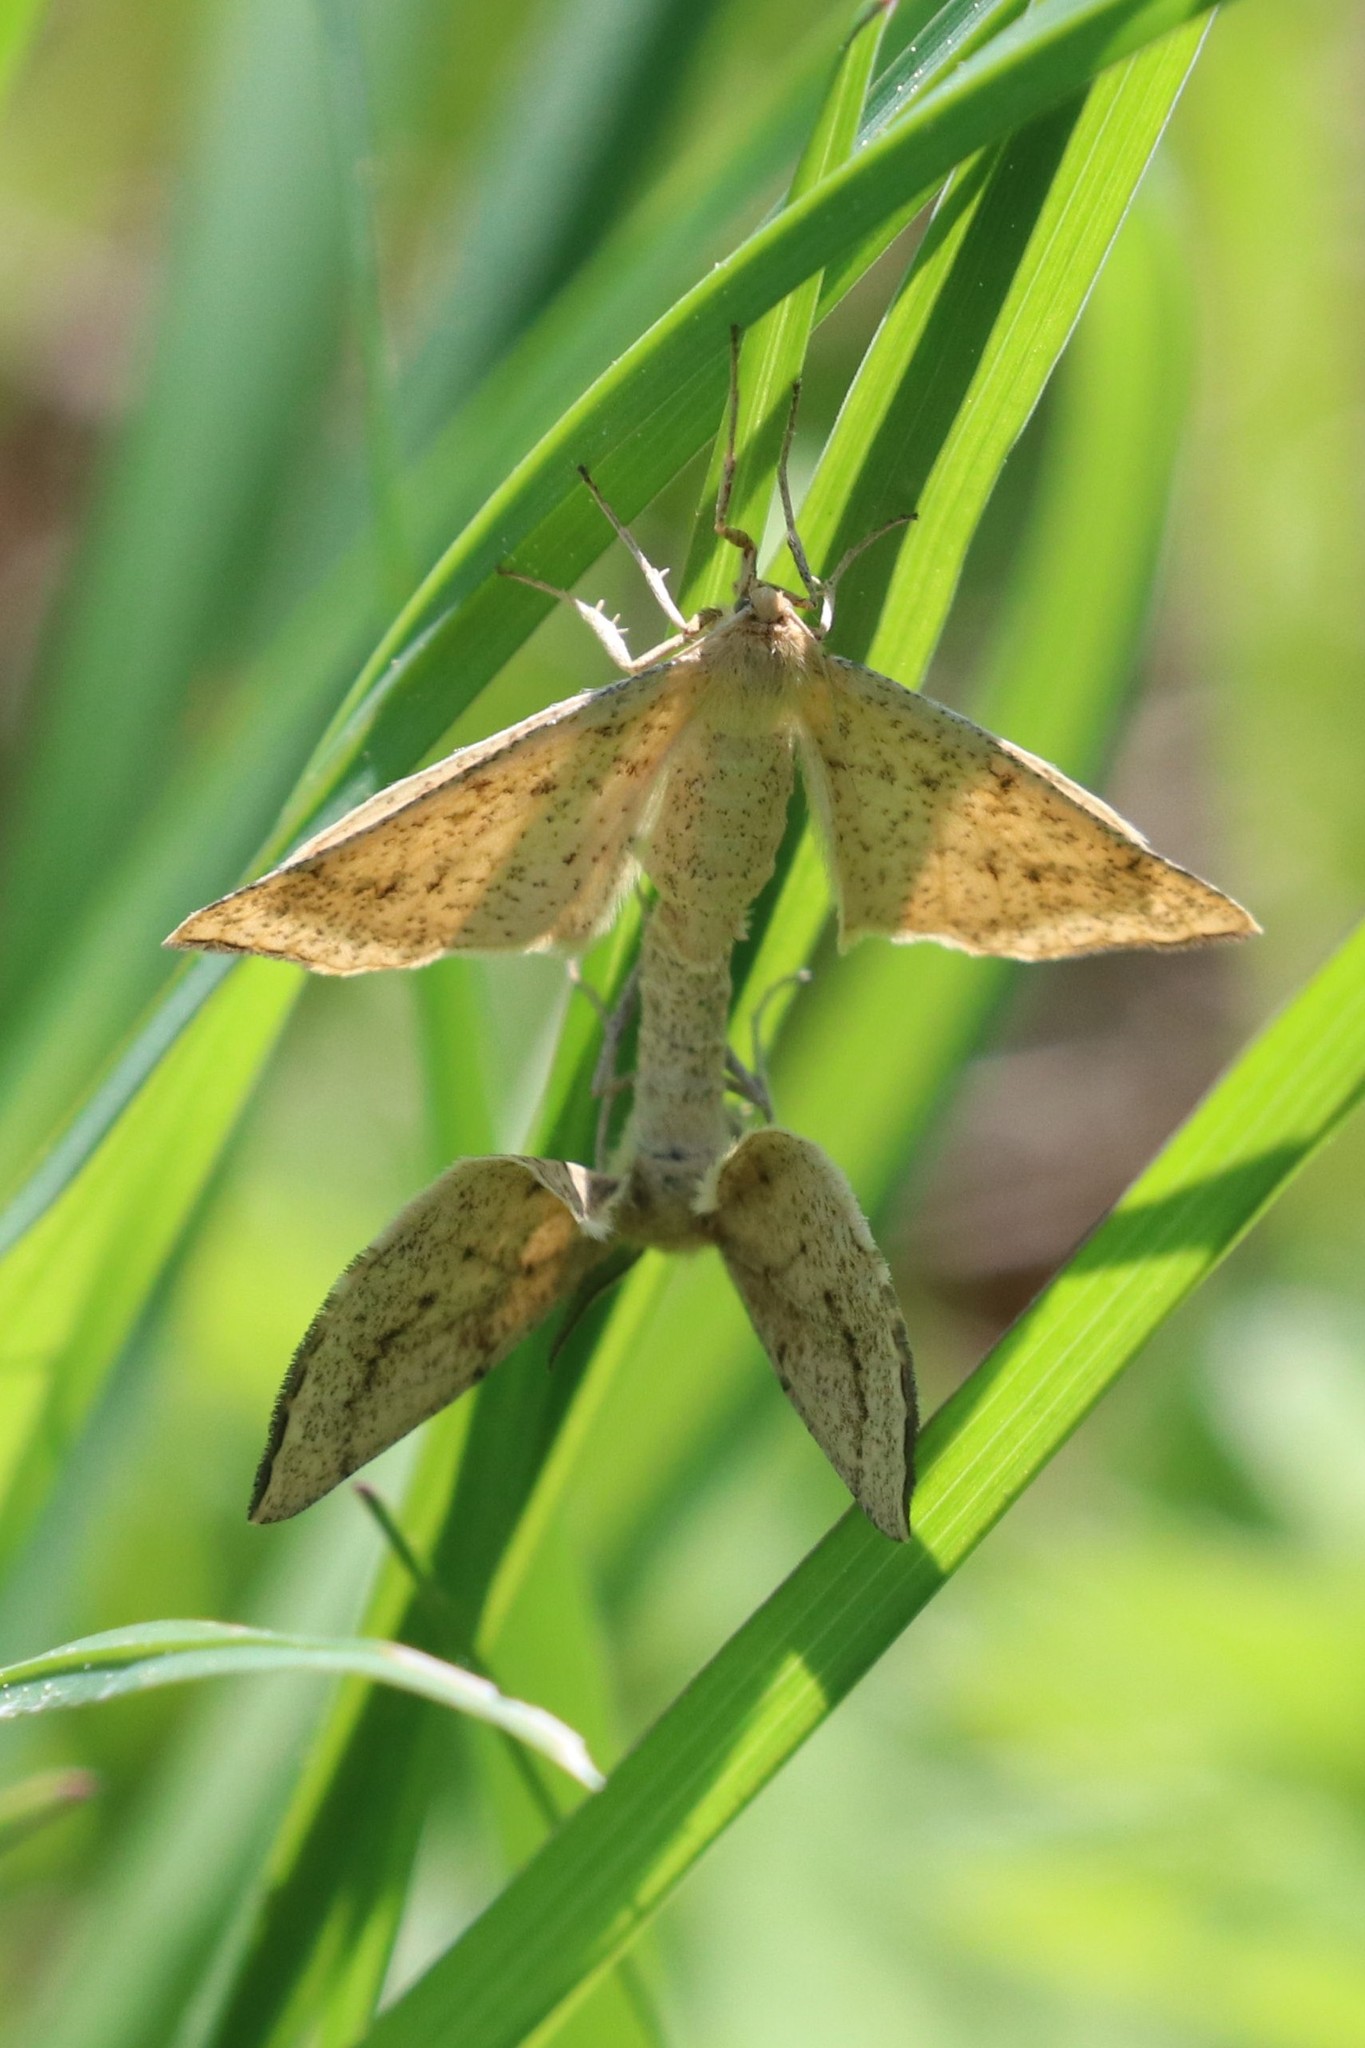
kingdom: Animalia
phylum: Arthropoda
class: Insecta
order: Lepidoptera
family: Geometridae
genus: Hypoxystis
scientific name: Hypoxystis pluviaria
